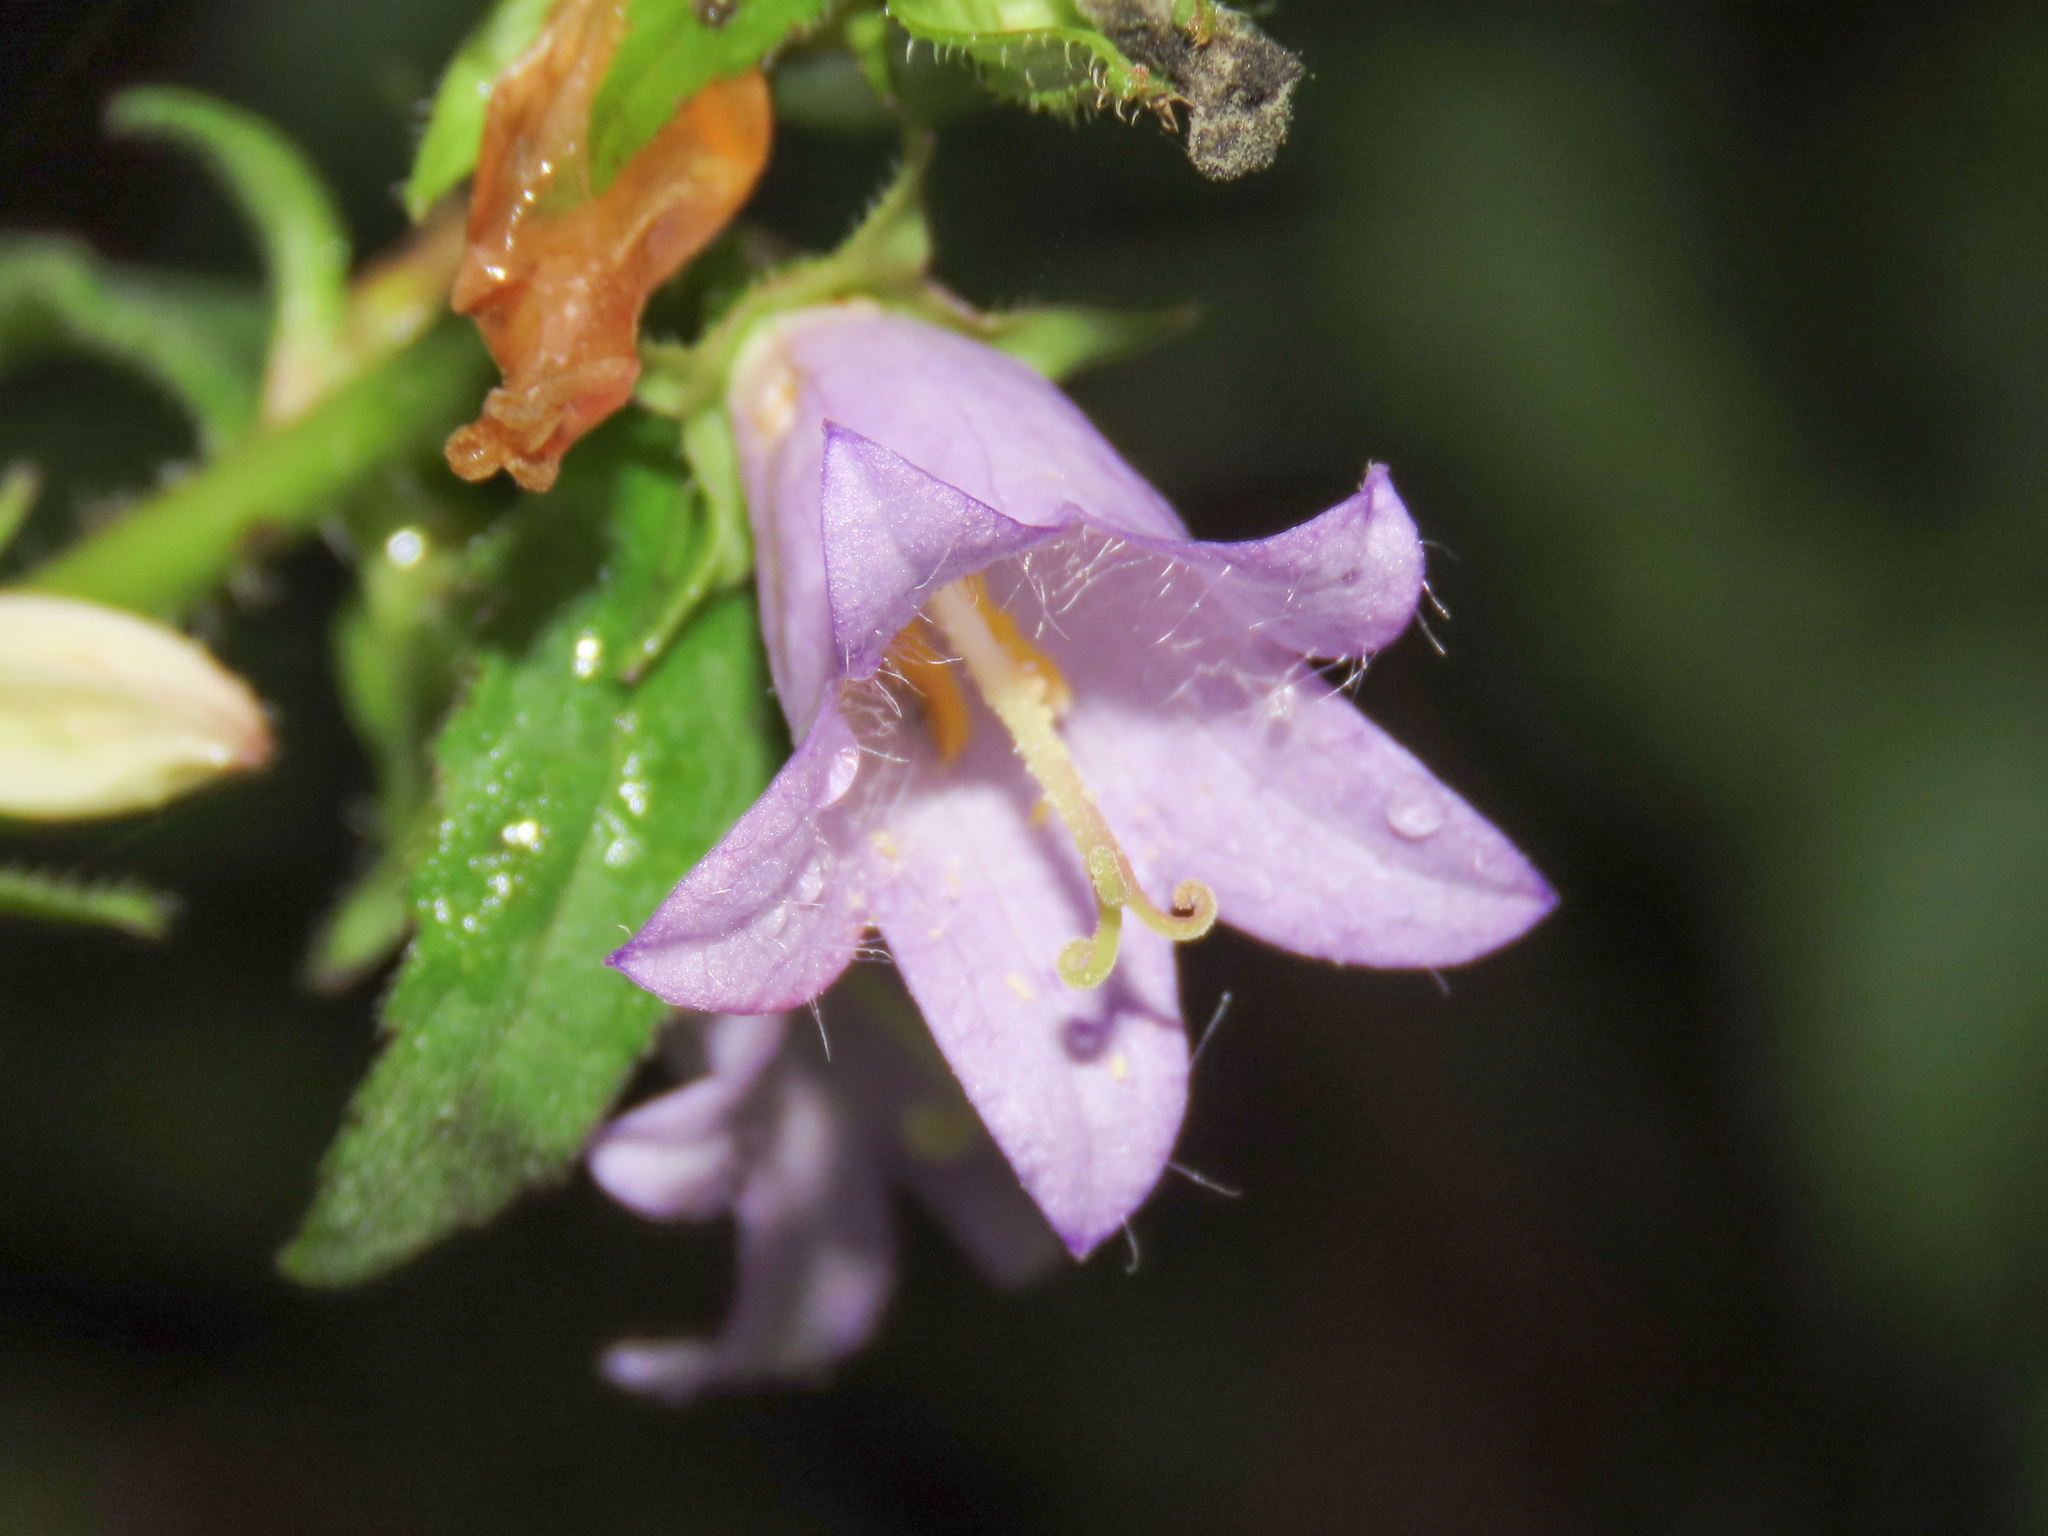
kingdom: Plantae
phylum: Tracheophyta
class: Magnoliopsida
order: Asterales
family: Campanulaceae
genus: Campanula
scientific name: Campanula trachelium
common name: Nettle-leaved bellflower
